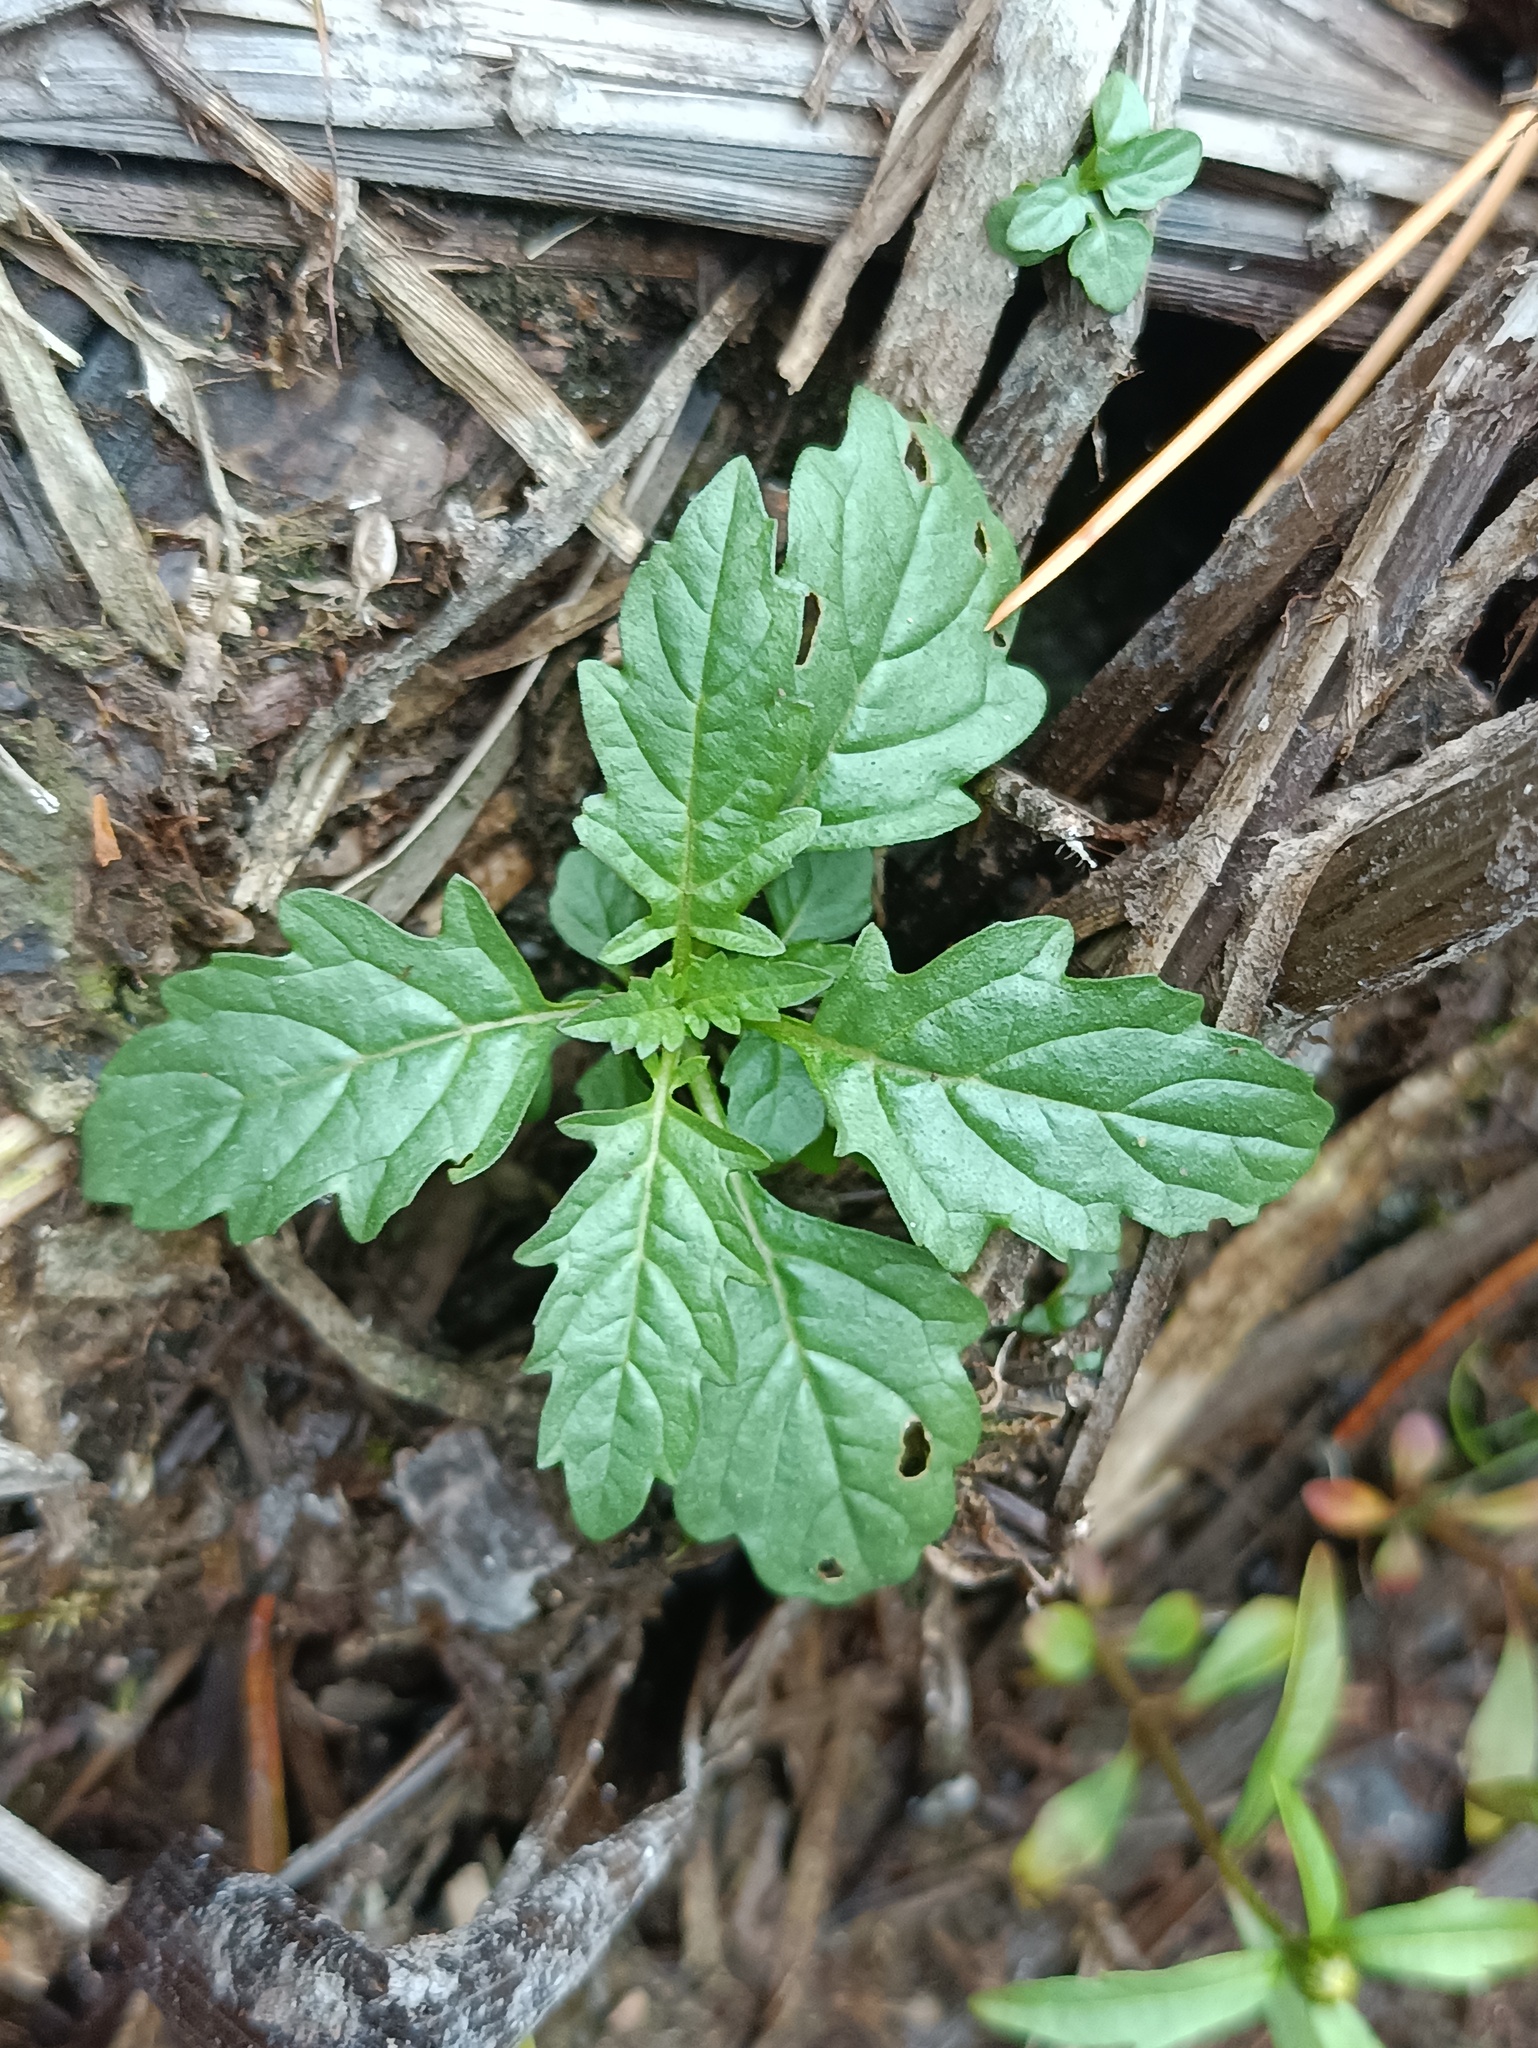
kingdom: Plantae
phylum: Tracheophyta
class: Magnoliopsida
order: Lamiales
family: Lamiaceae
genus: Lycopus
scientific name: Lycopus europaeus
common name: European bugleweed
